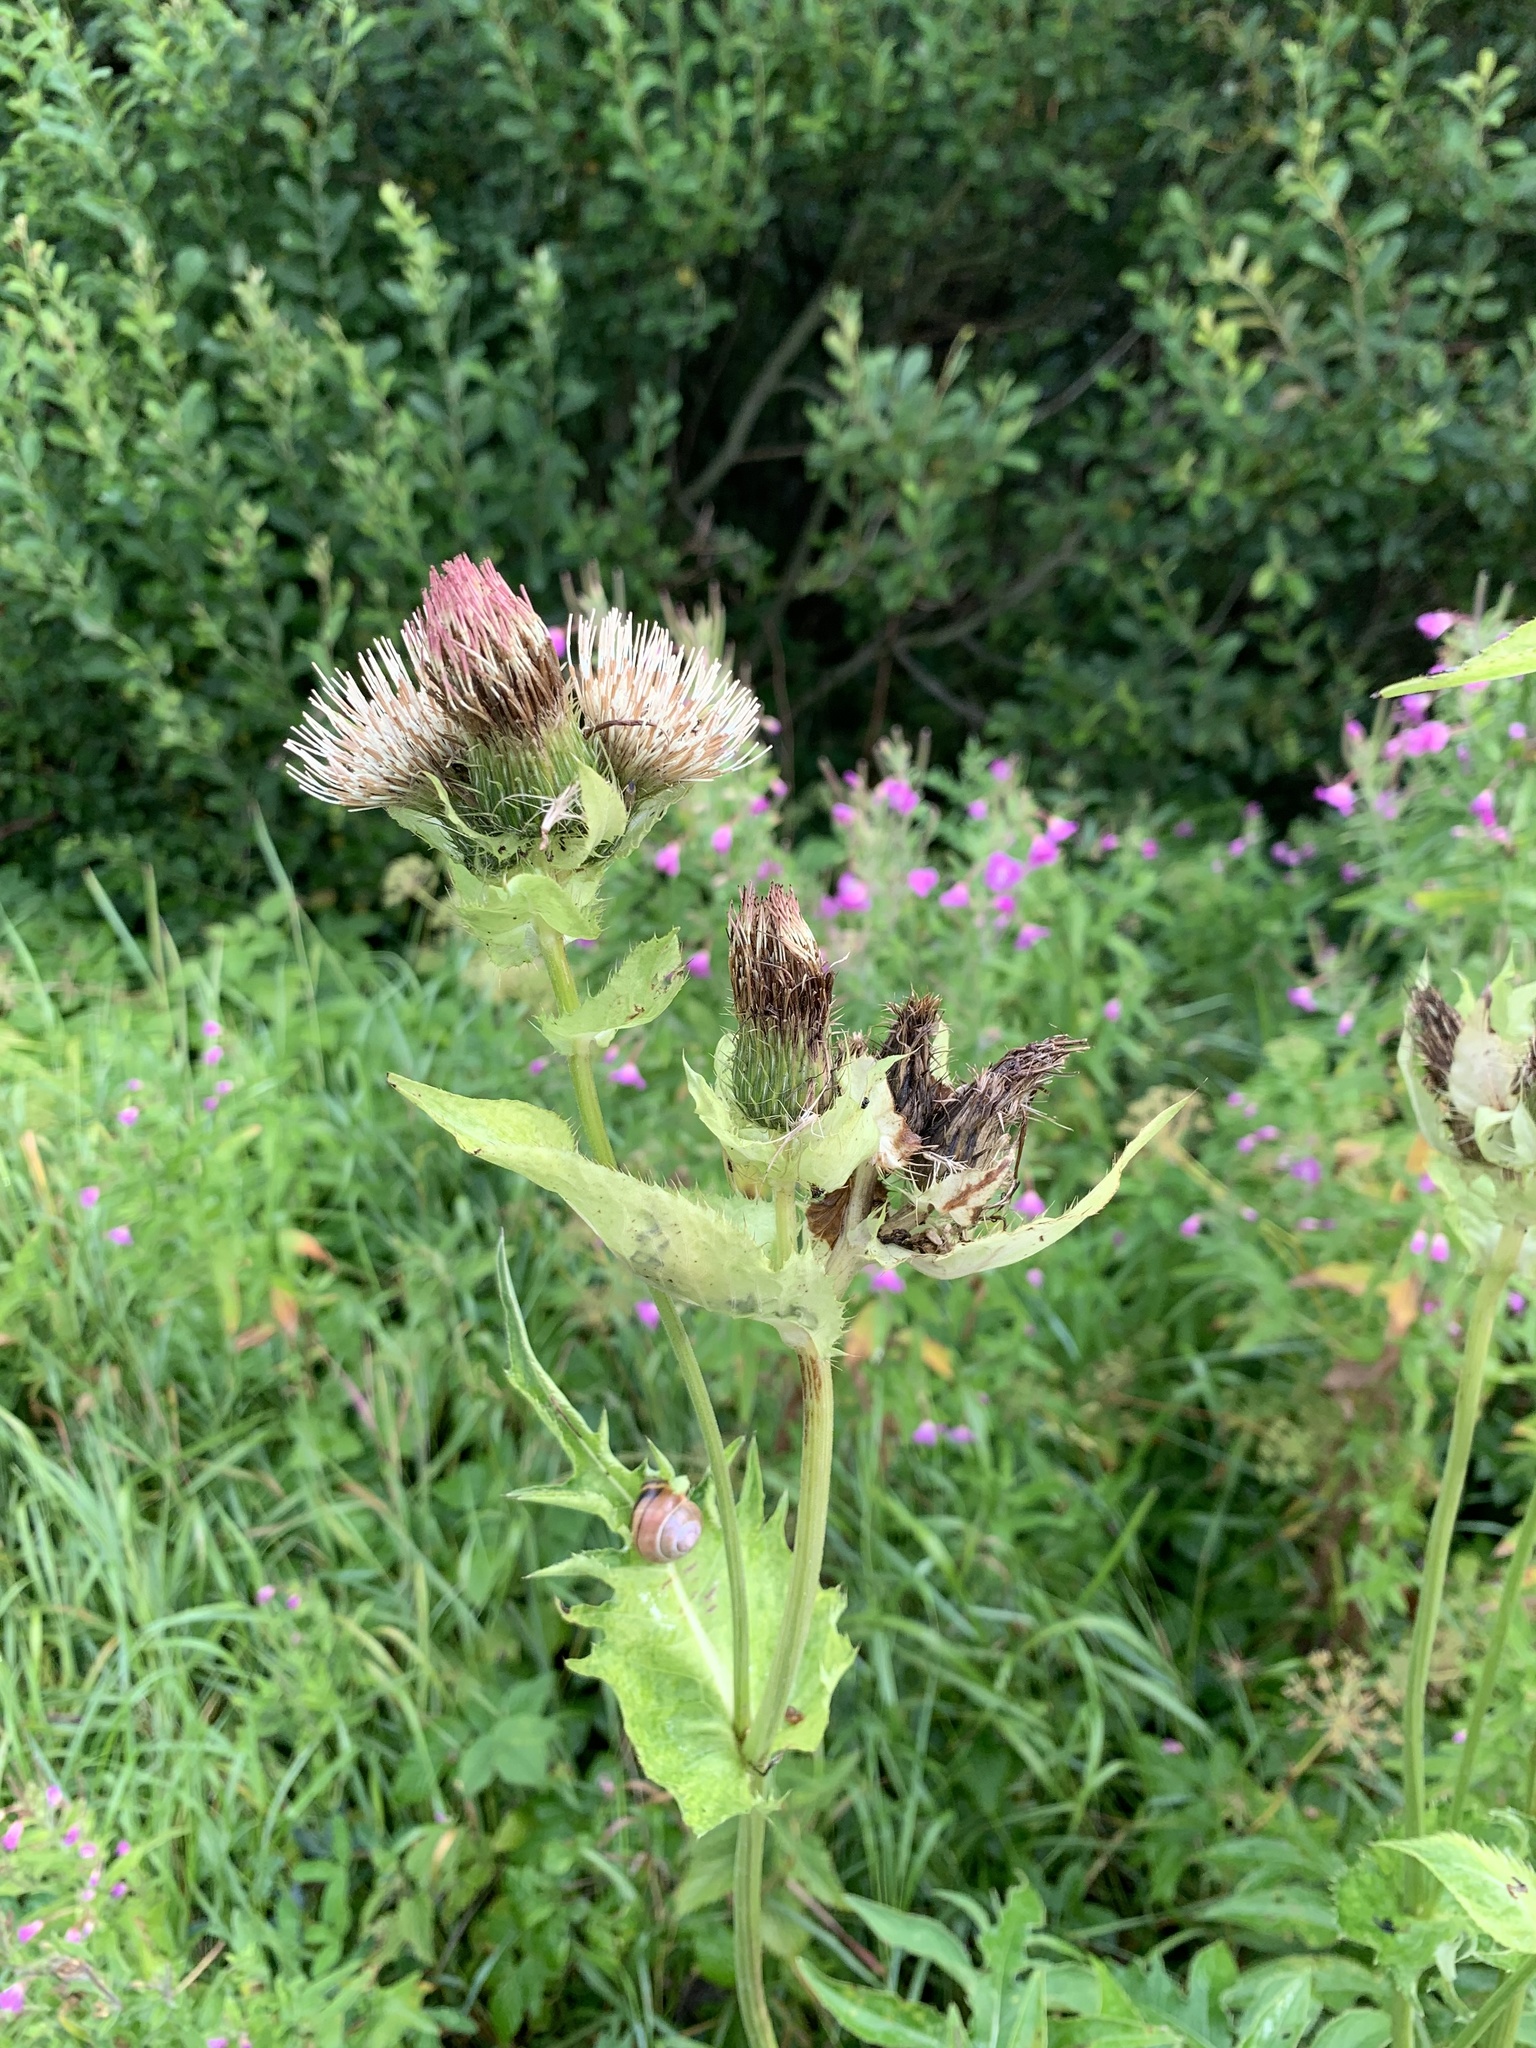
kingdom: Plantae
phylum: Tracheophyta
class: Magnoliopsida
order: Asterales
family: Asteraceae
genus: Cirsium
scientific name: Cirsium oleraceum
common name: Cabbage thistle
